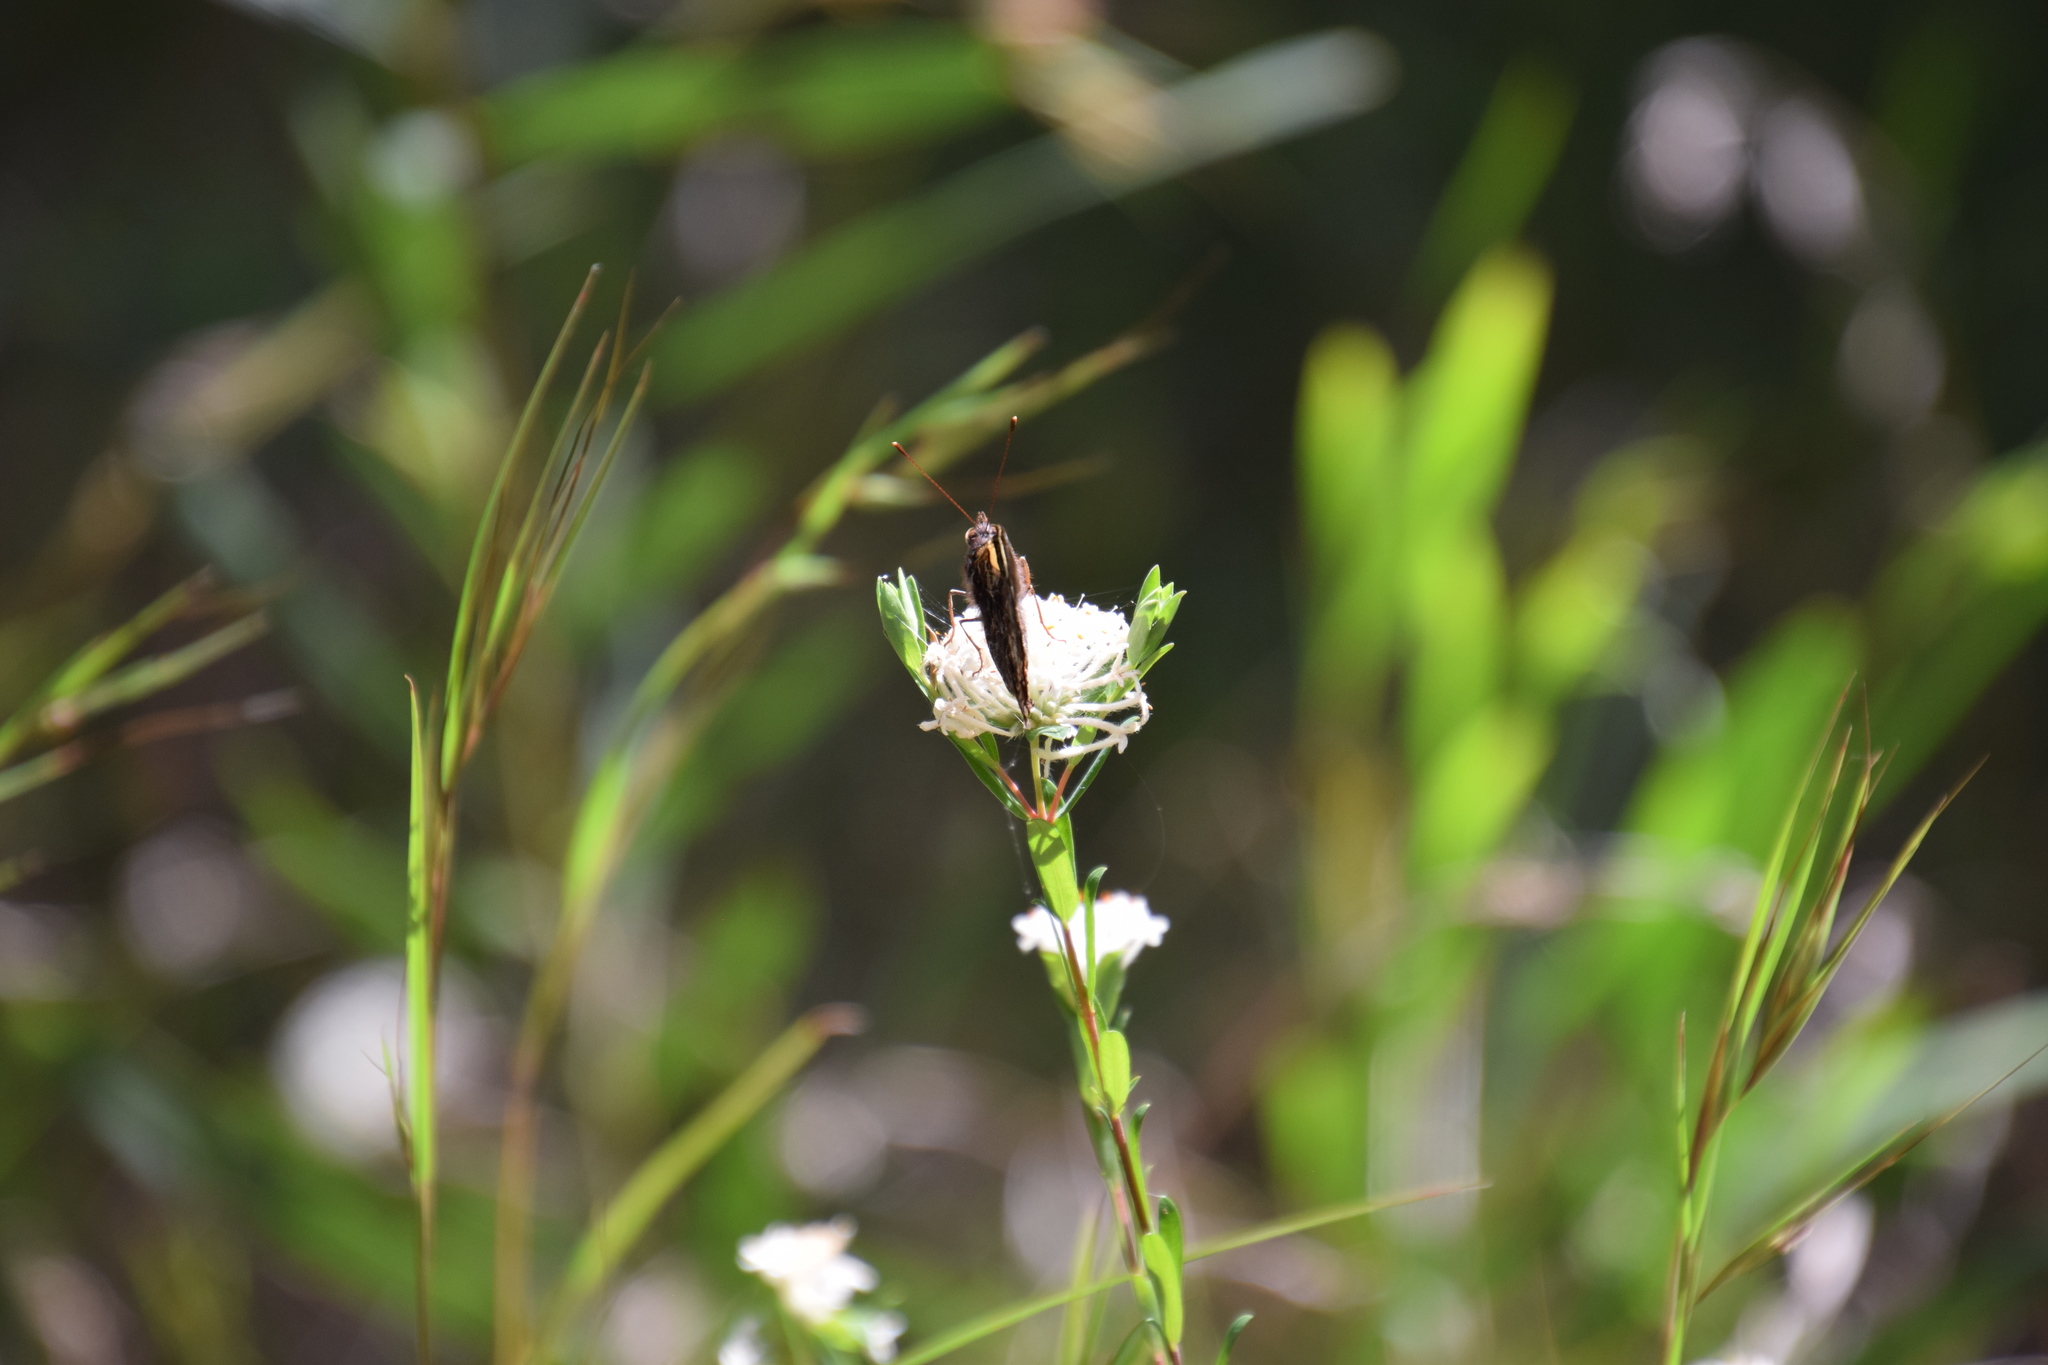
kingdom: Animalia
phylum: Arthropoda
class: Insecta
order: Lepidoptera
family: Nymphalidae
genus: Vanessa
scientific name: Vanessa itea
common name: Yellow admiral
